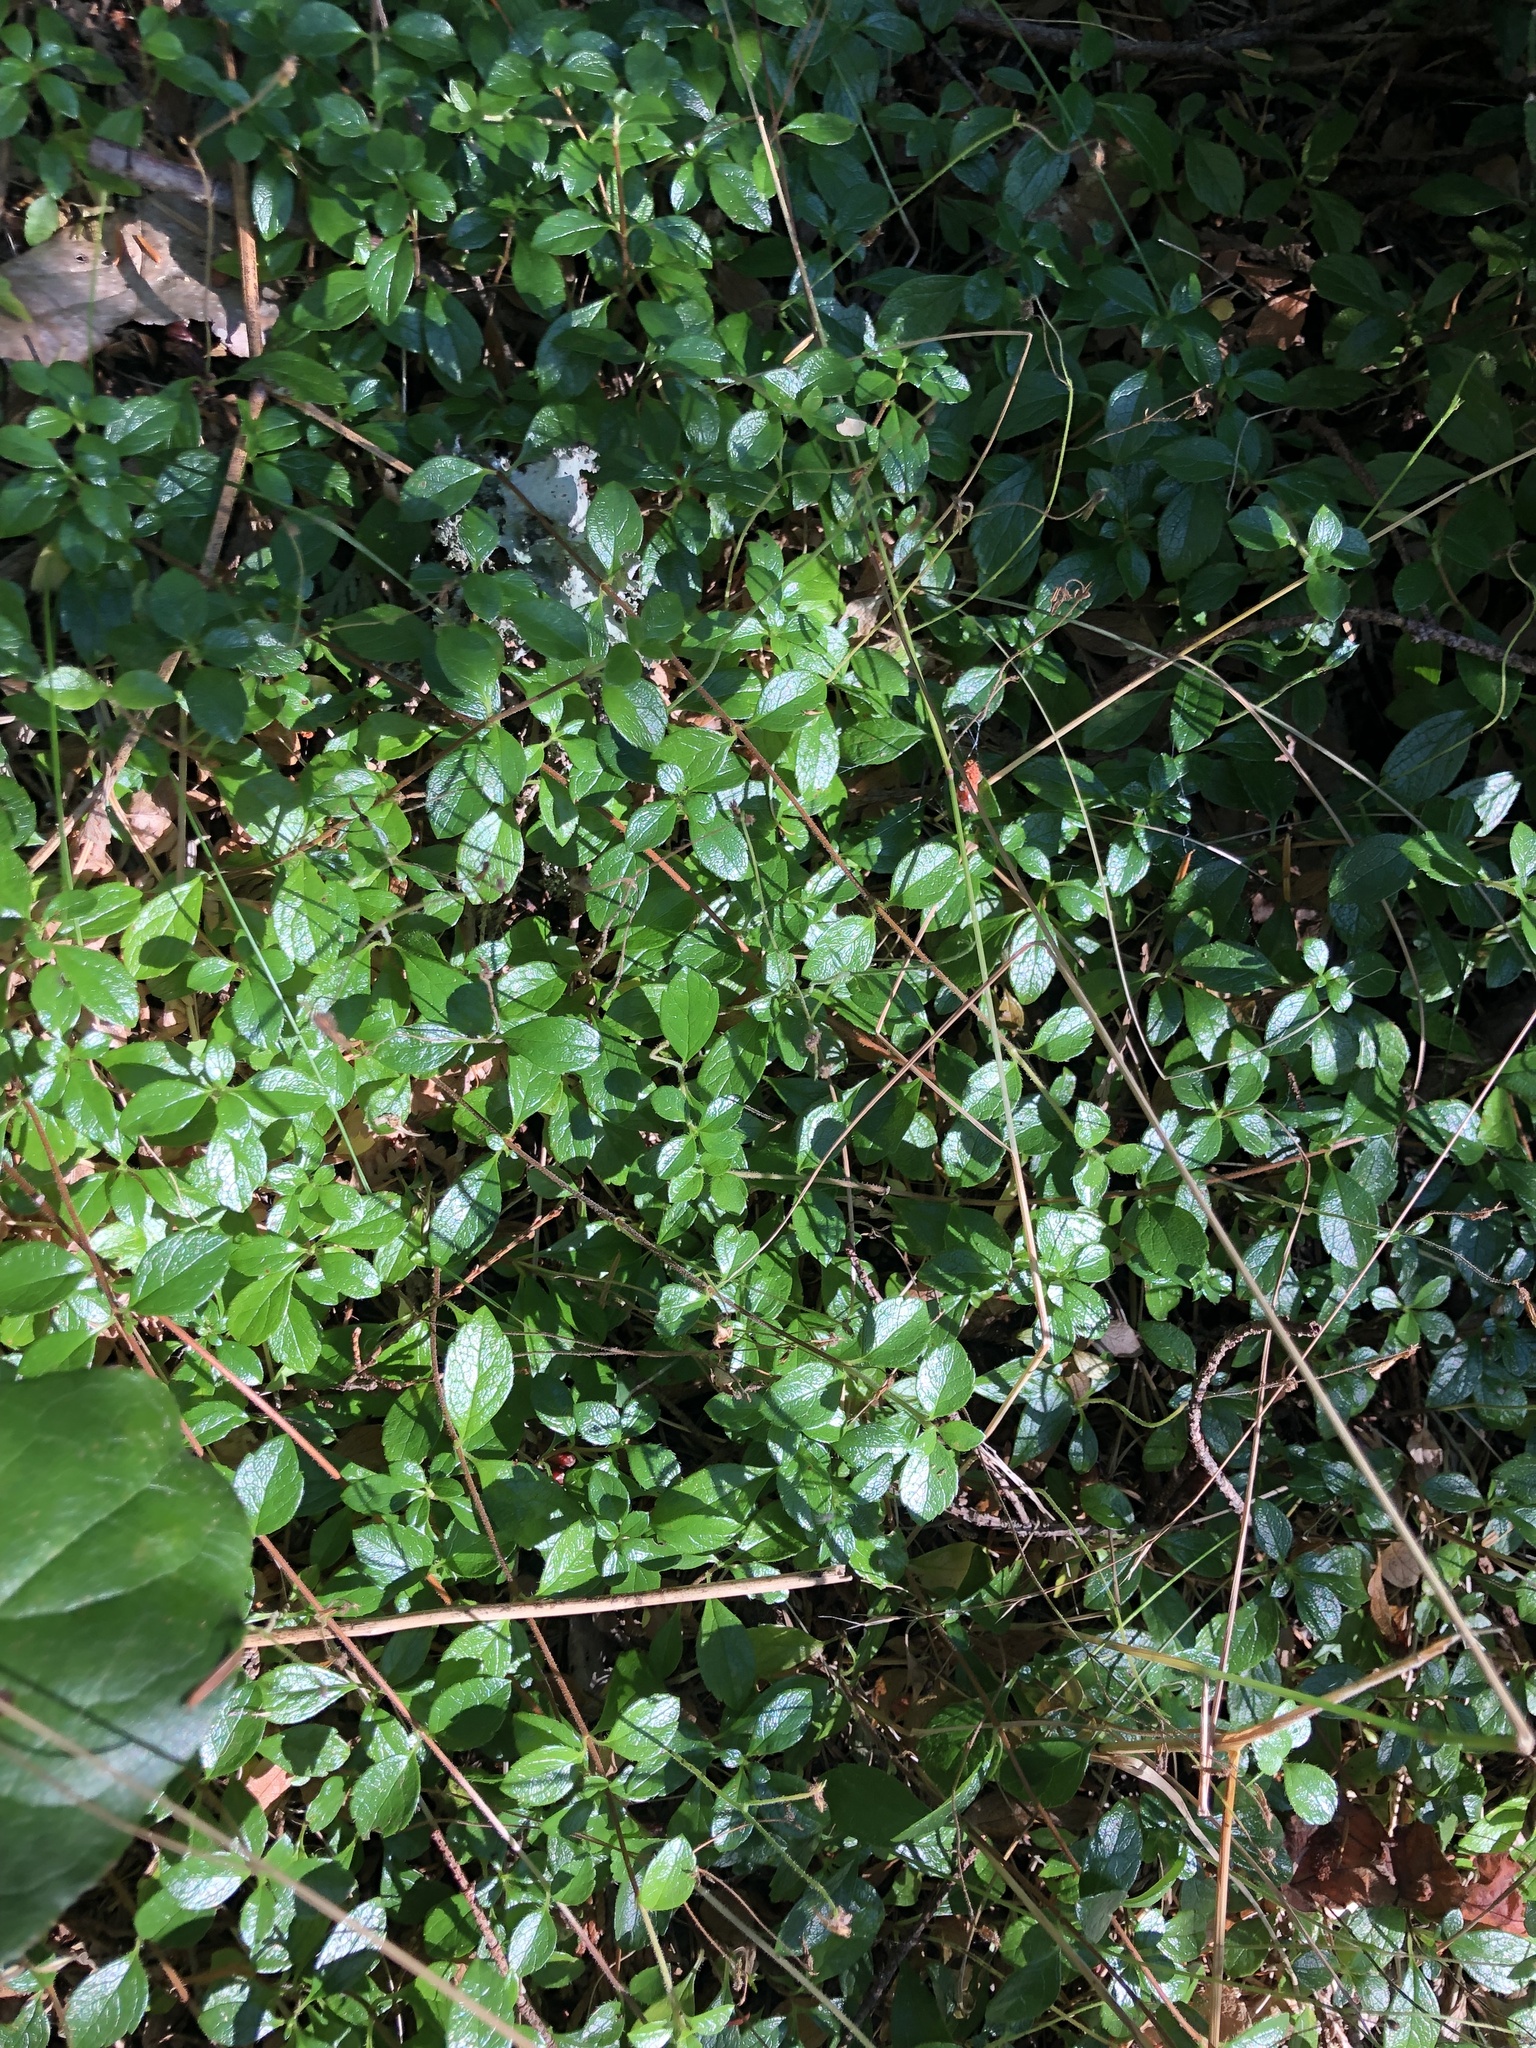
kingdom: Plantae
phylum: Tracheophyta
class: Magnoliopsida
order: Dipsacales
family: Caprifoliaceae
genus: Linnaea
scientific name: Linnaea borealis
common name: Twinflower
